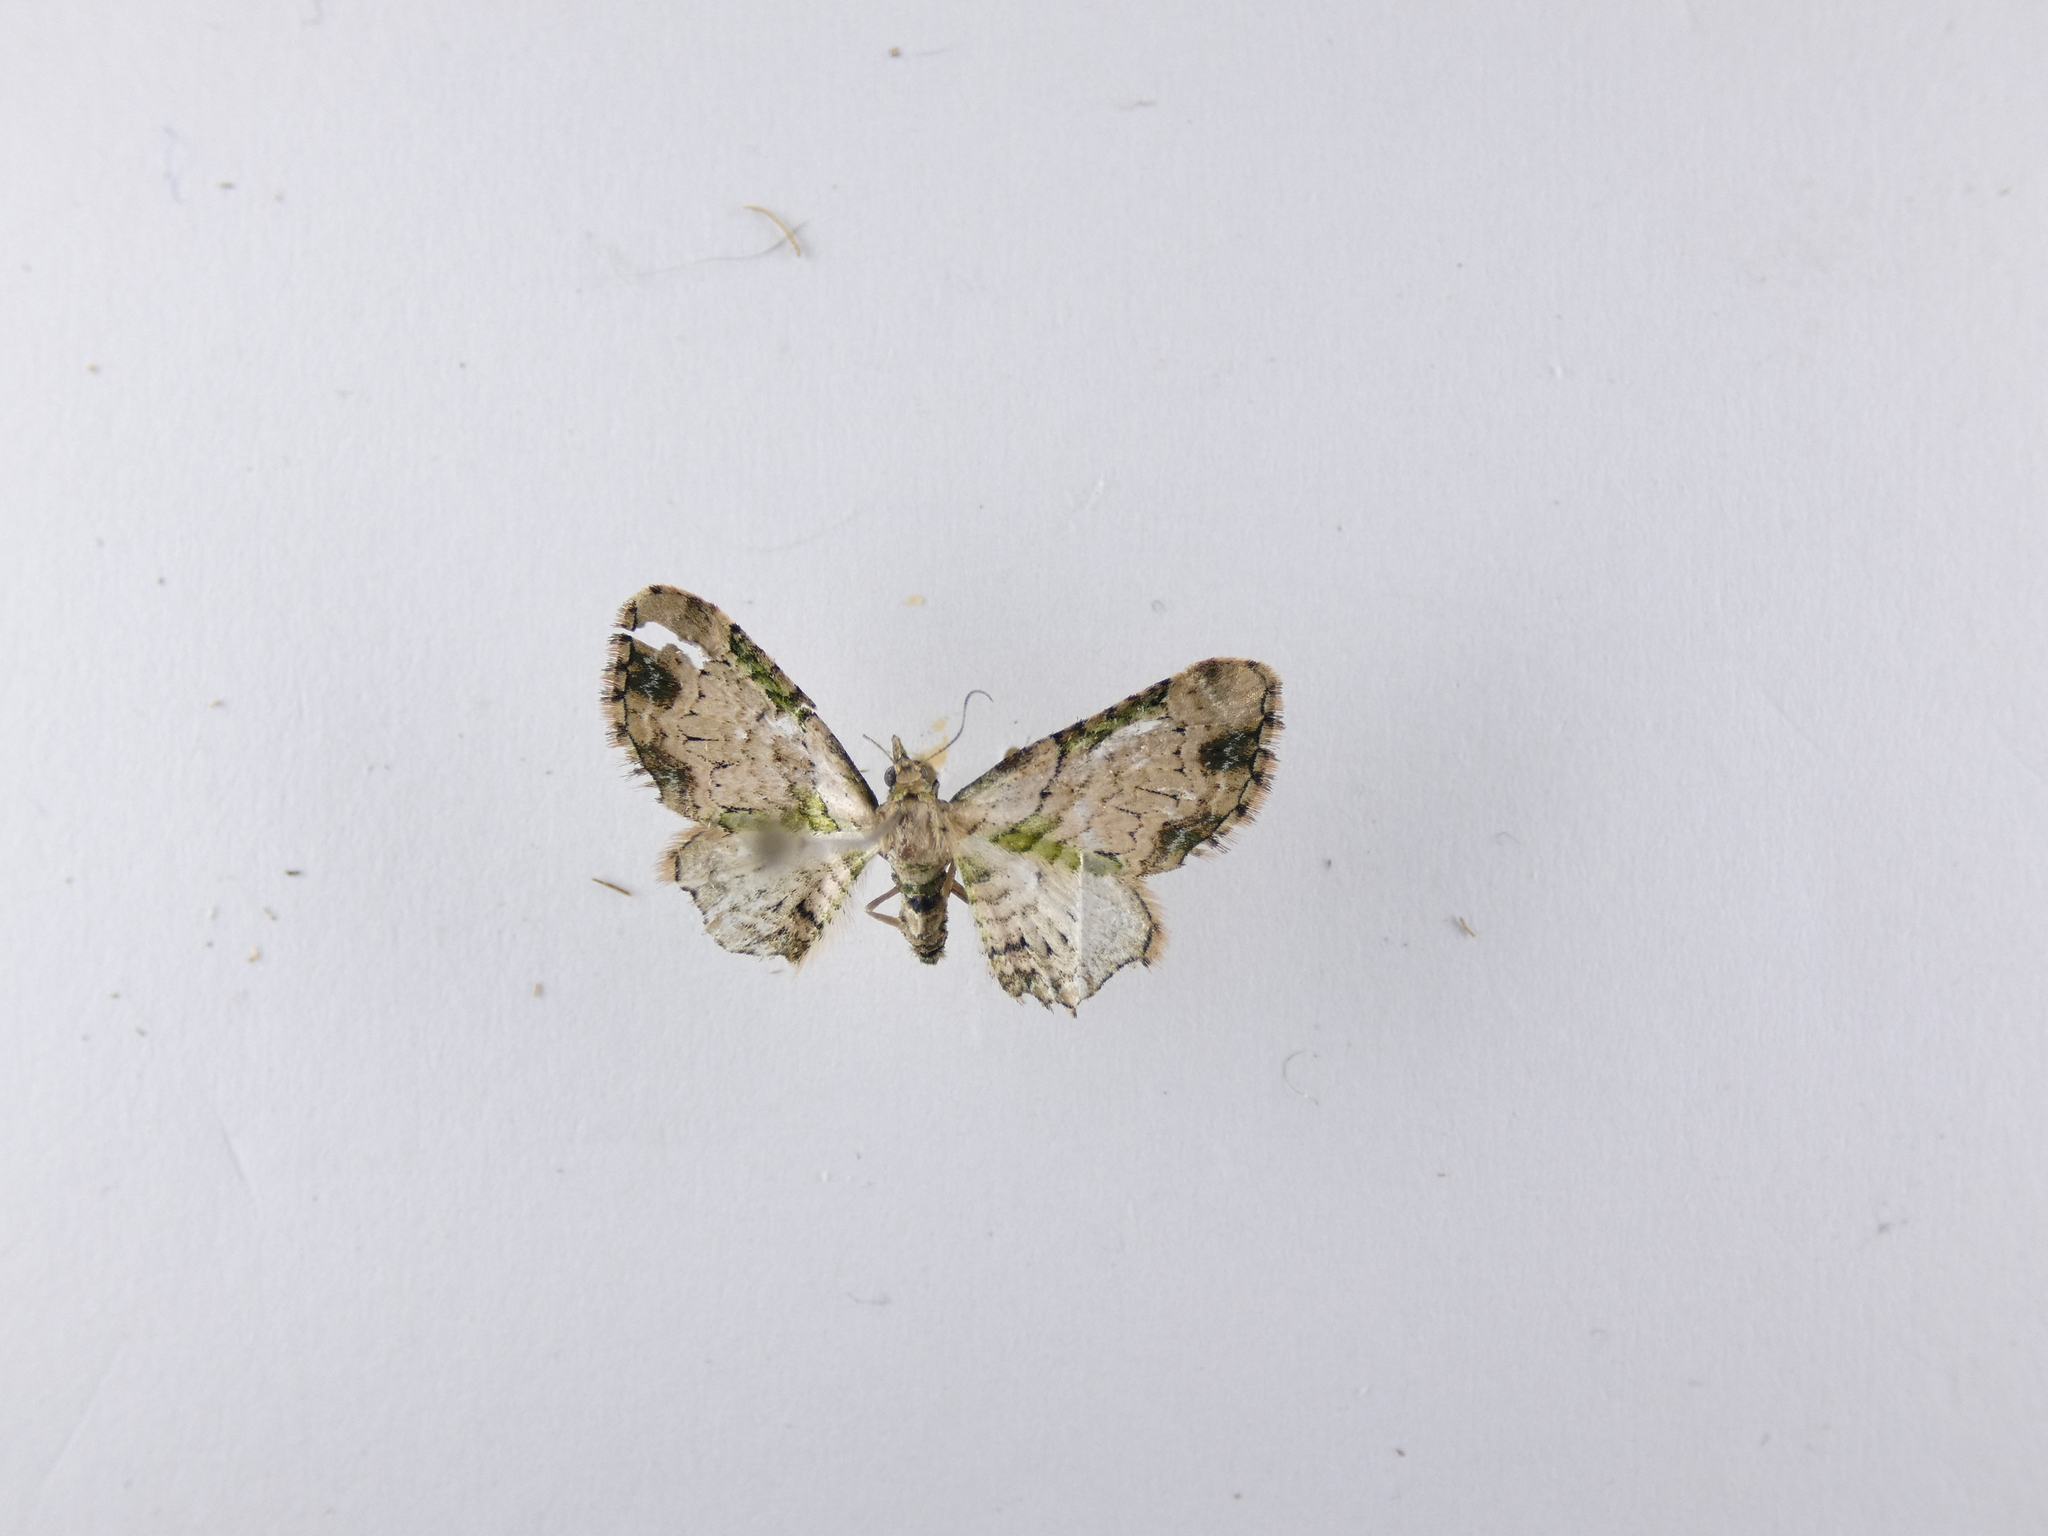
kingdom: Animalia
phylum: Arthropoda
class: Insecta
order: Lepidoptera
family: Geometridae
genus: Chloroclystis
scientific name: Chloroclystis
